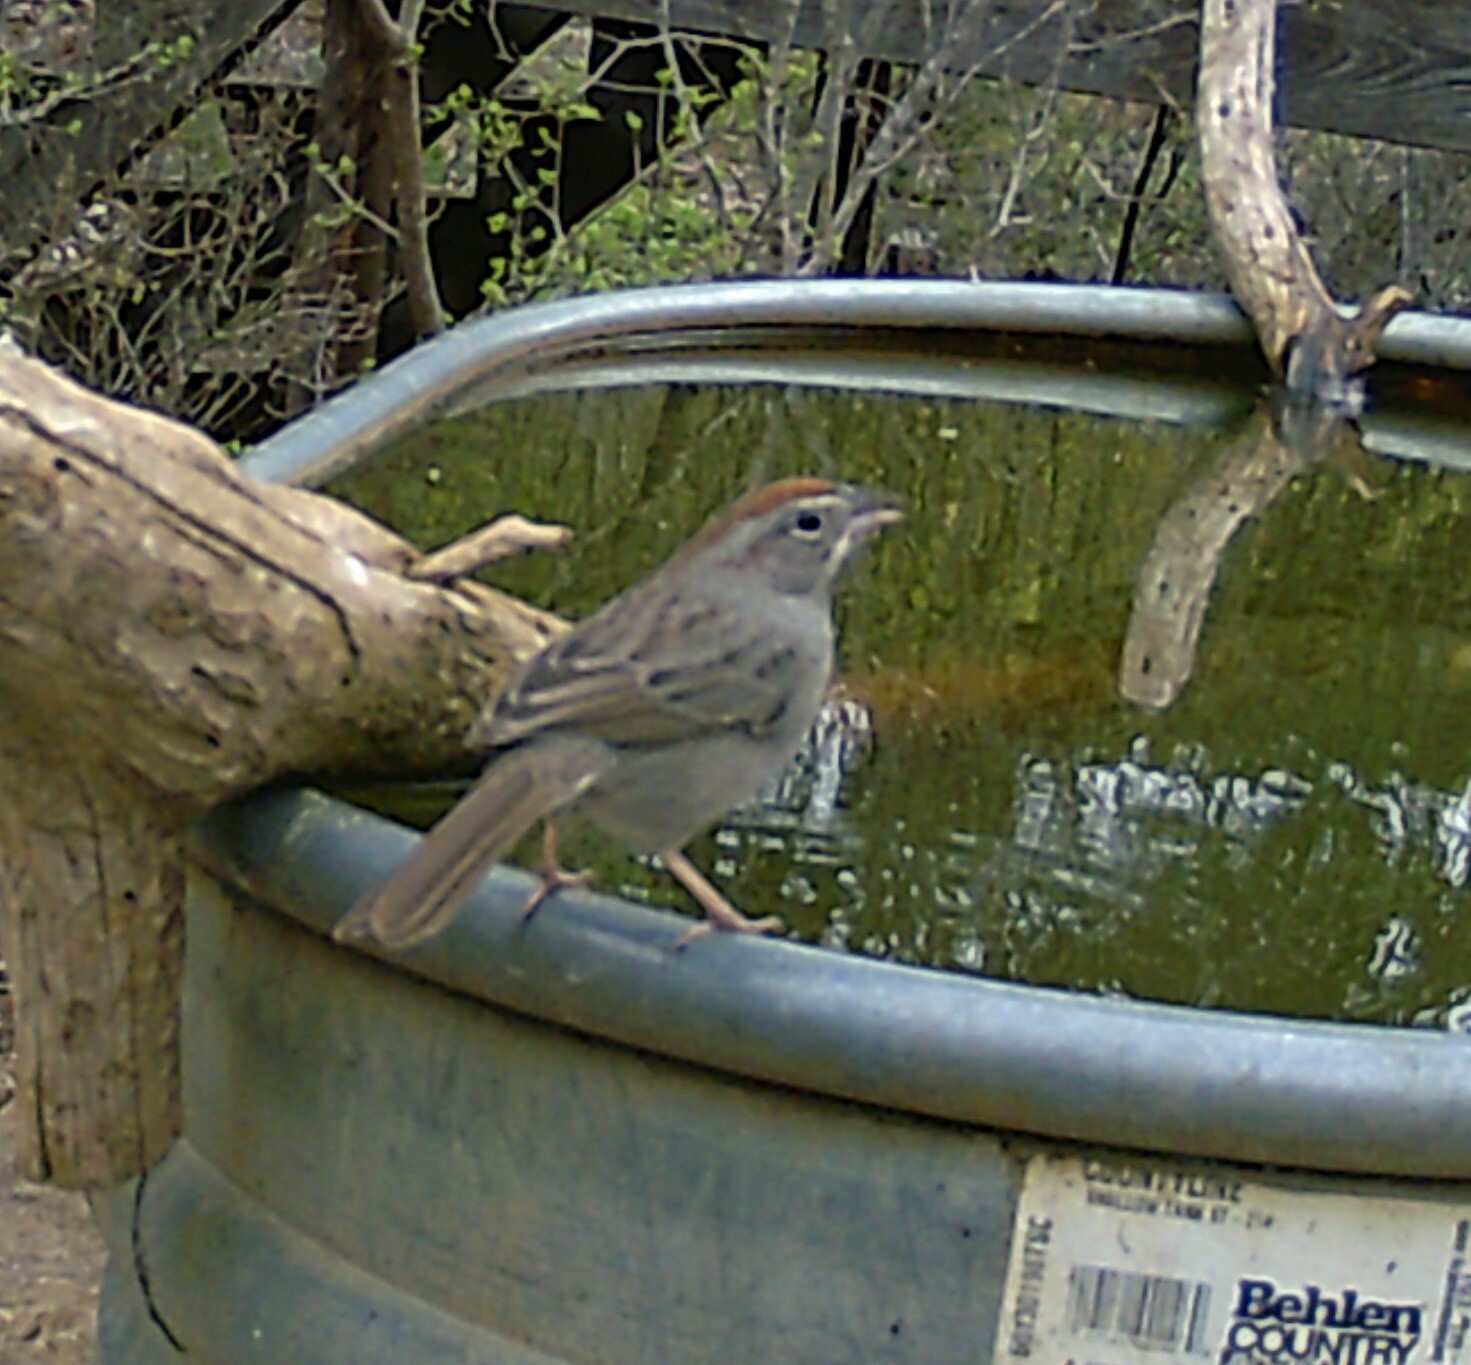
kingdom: Animalia
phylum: Chordata
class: Aves
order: Passeriformes
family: Passerellidae
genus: Aimophila
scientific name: Aimophila ruficeps
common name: Rufous-crowned sparrow
